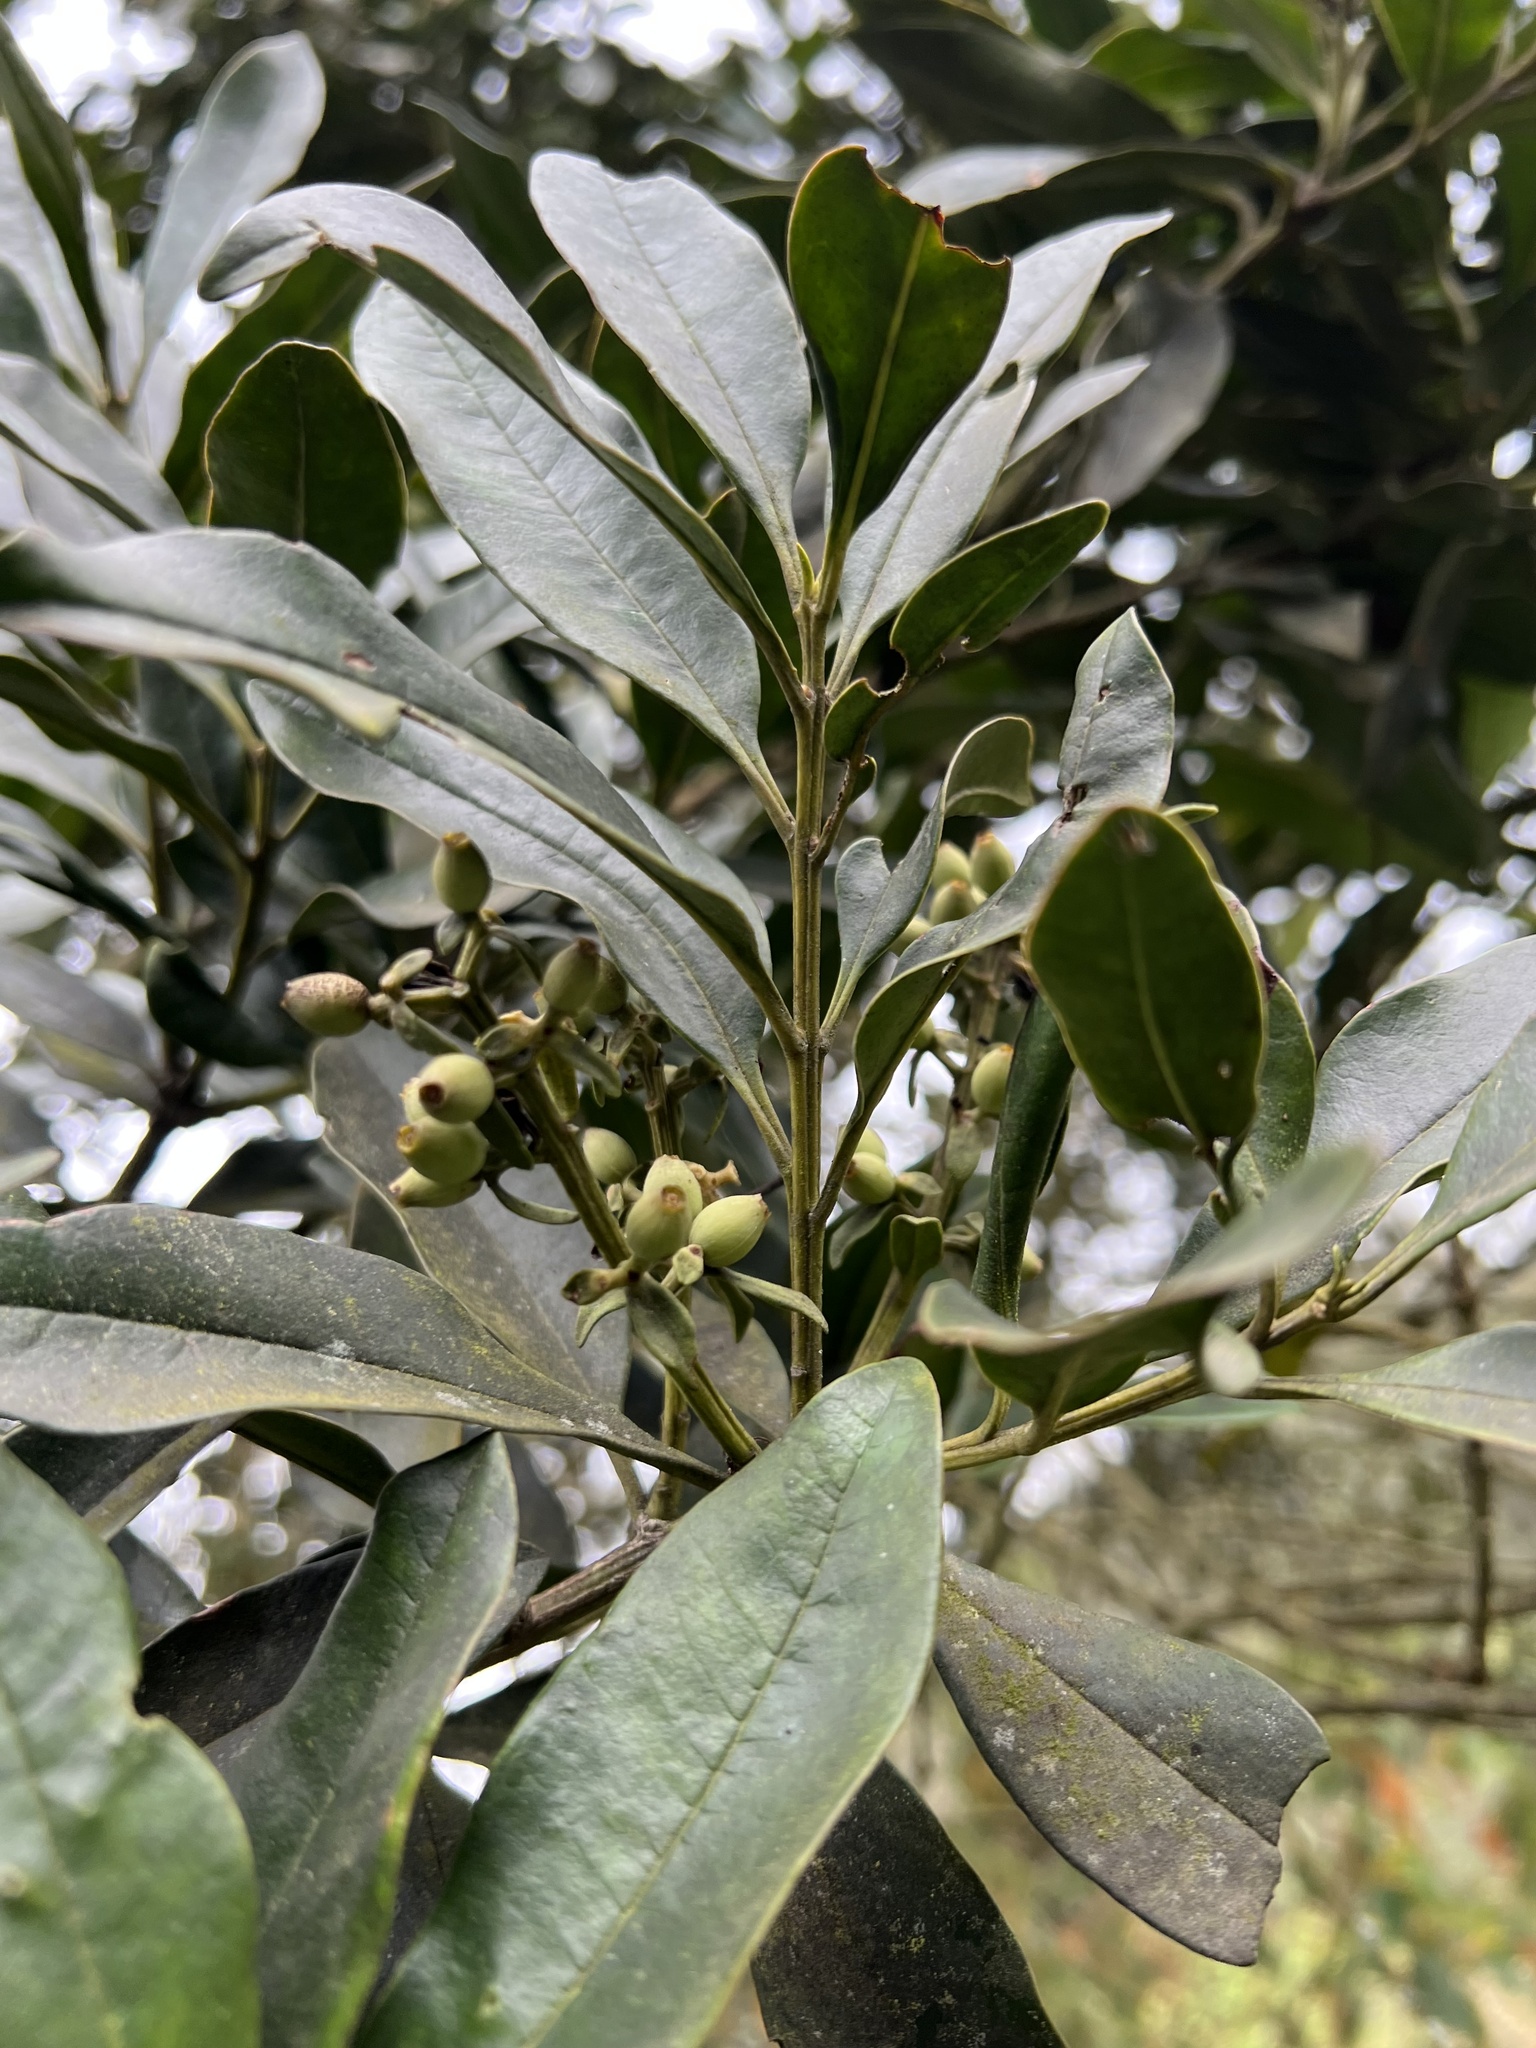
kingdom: Plantae
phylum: Tracheophyta
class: Magnoliopsida
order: Santalales
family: Loranthaceae
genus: Gaiadendron
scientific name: Gaiadendron punctatum
